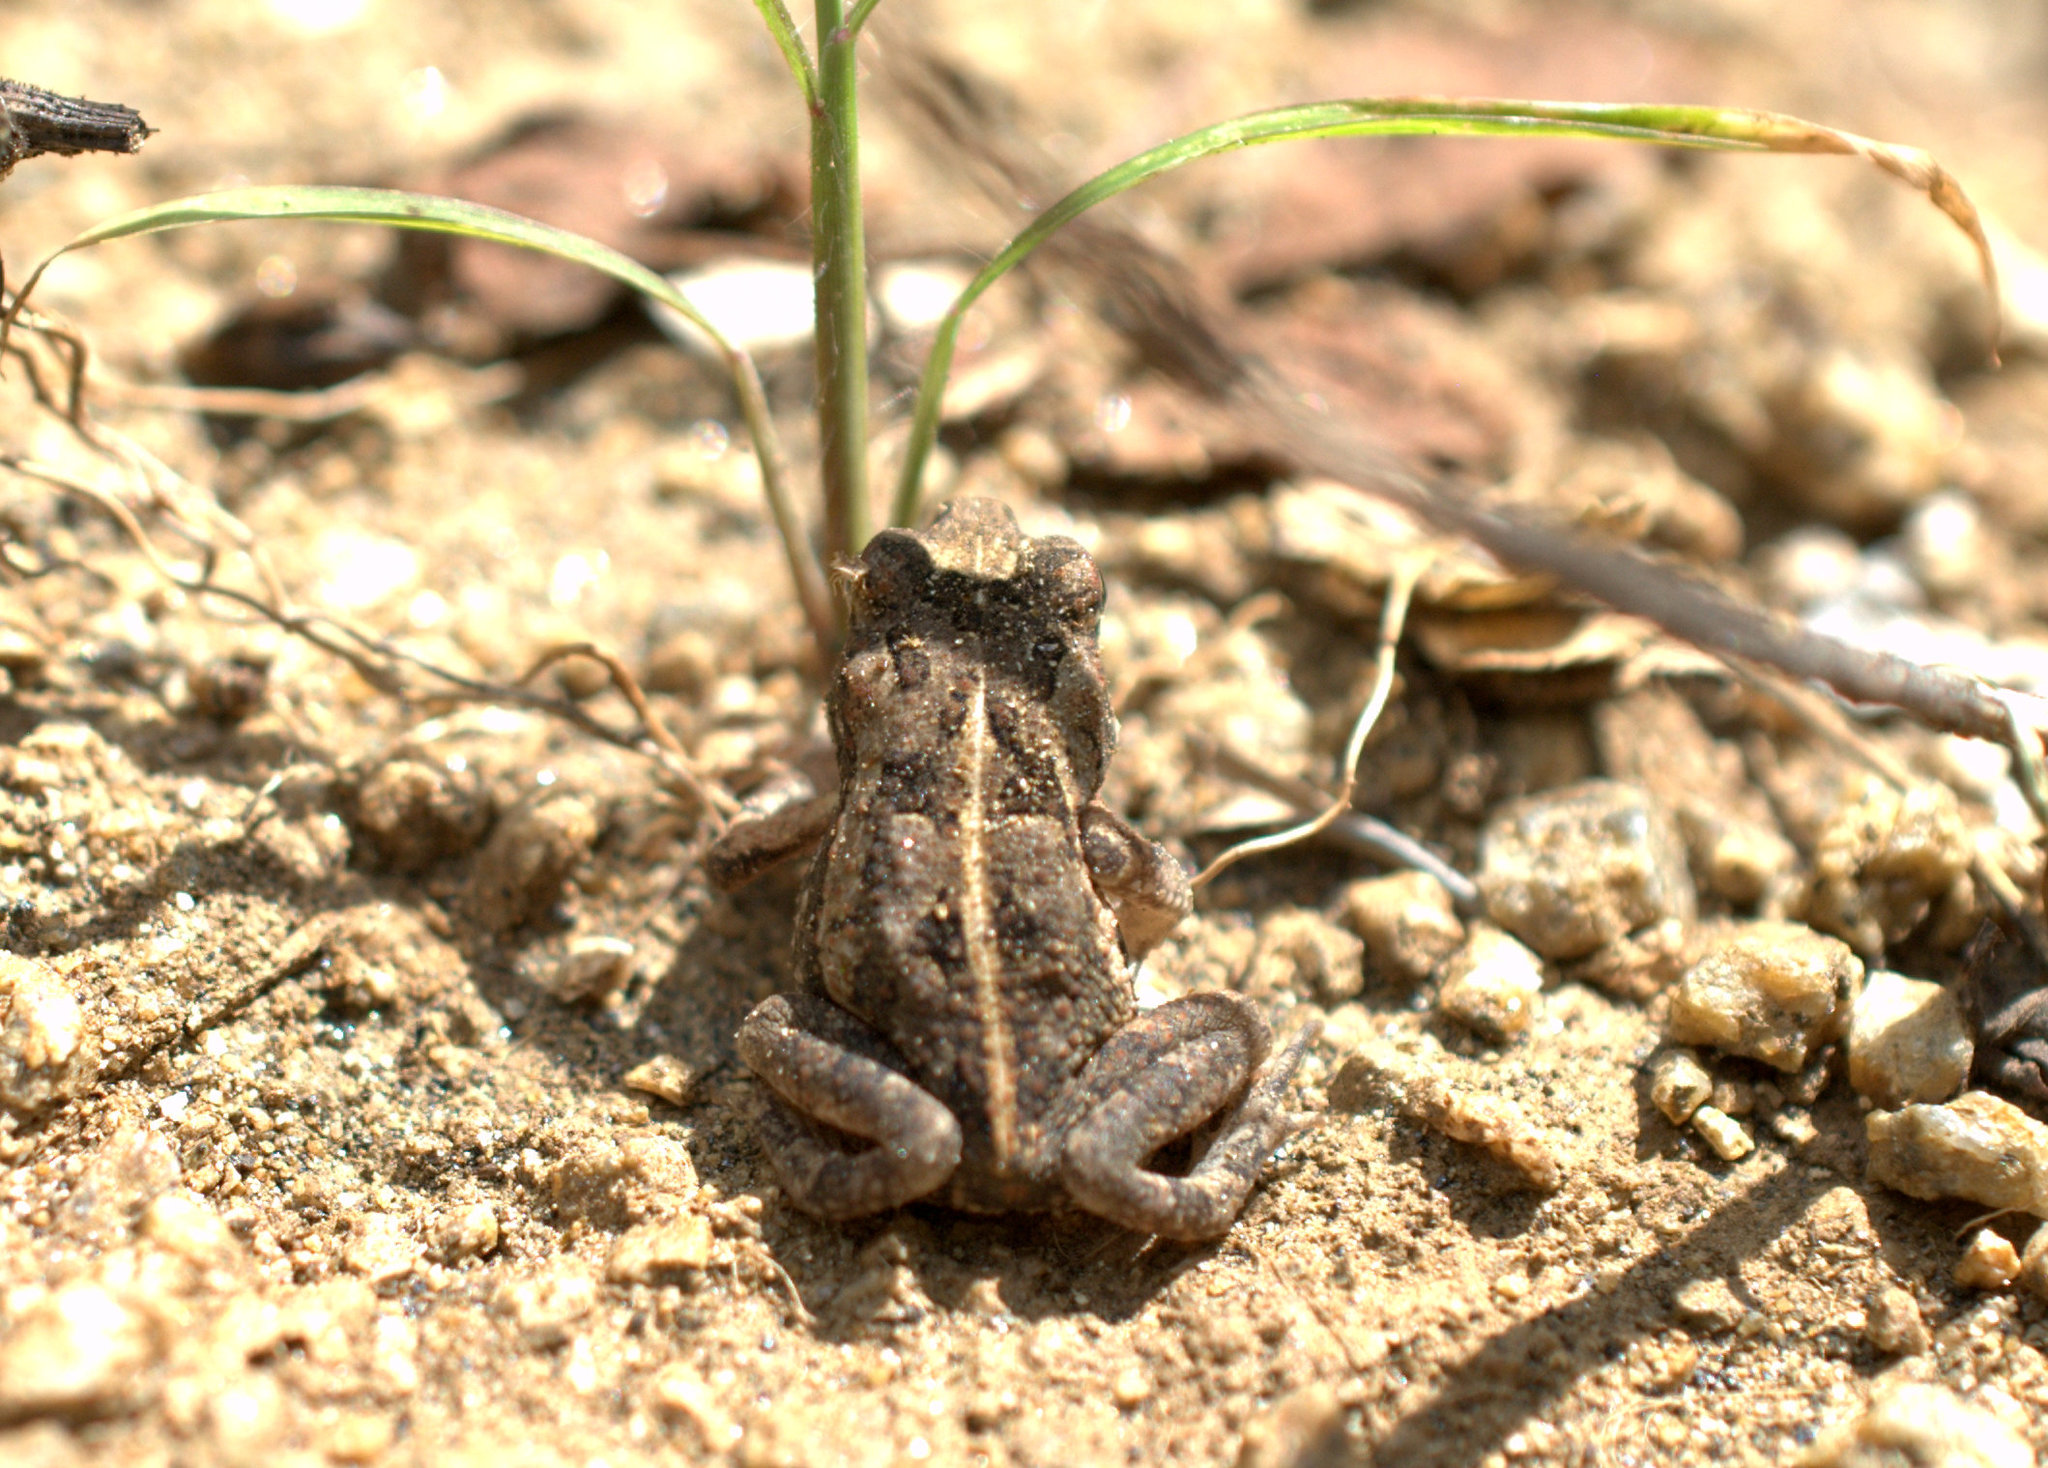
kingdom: Animalia
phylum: Chordata
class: Amphibia
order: Anura
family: Bufonidae
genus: Incilius
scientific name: Incilius marmoreus
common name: Marbled toad
